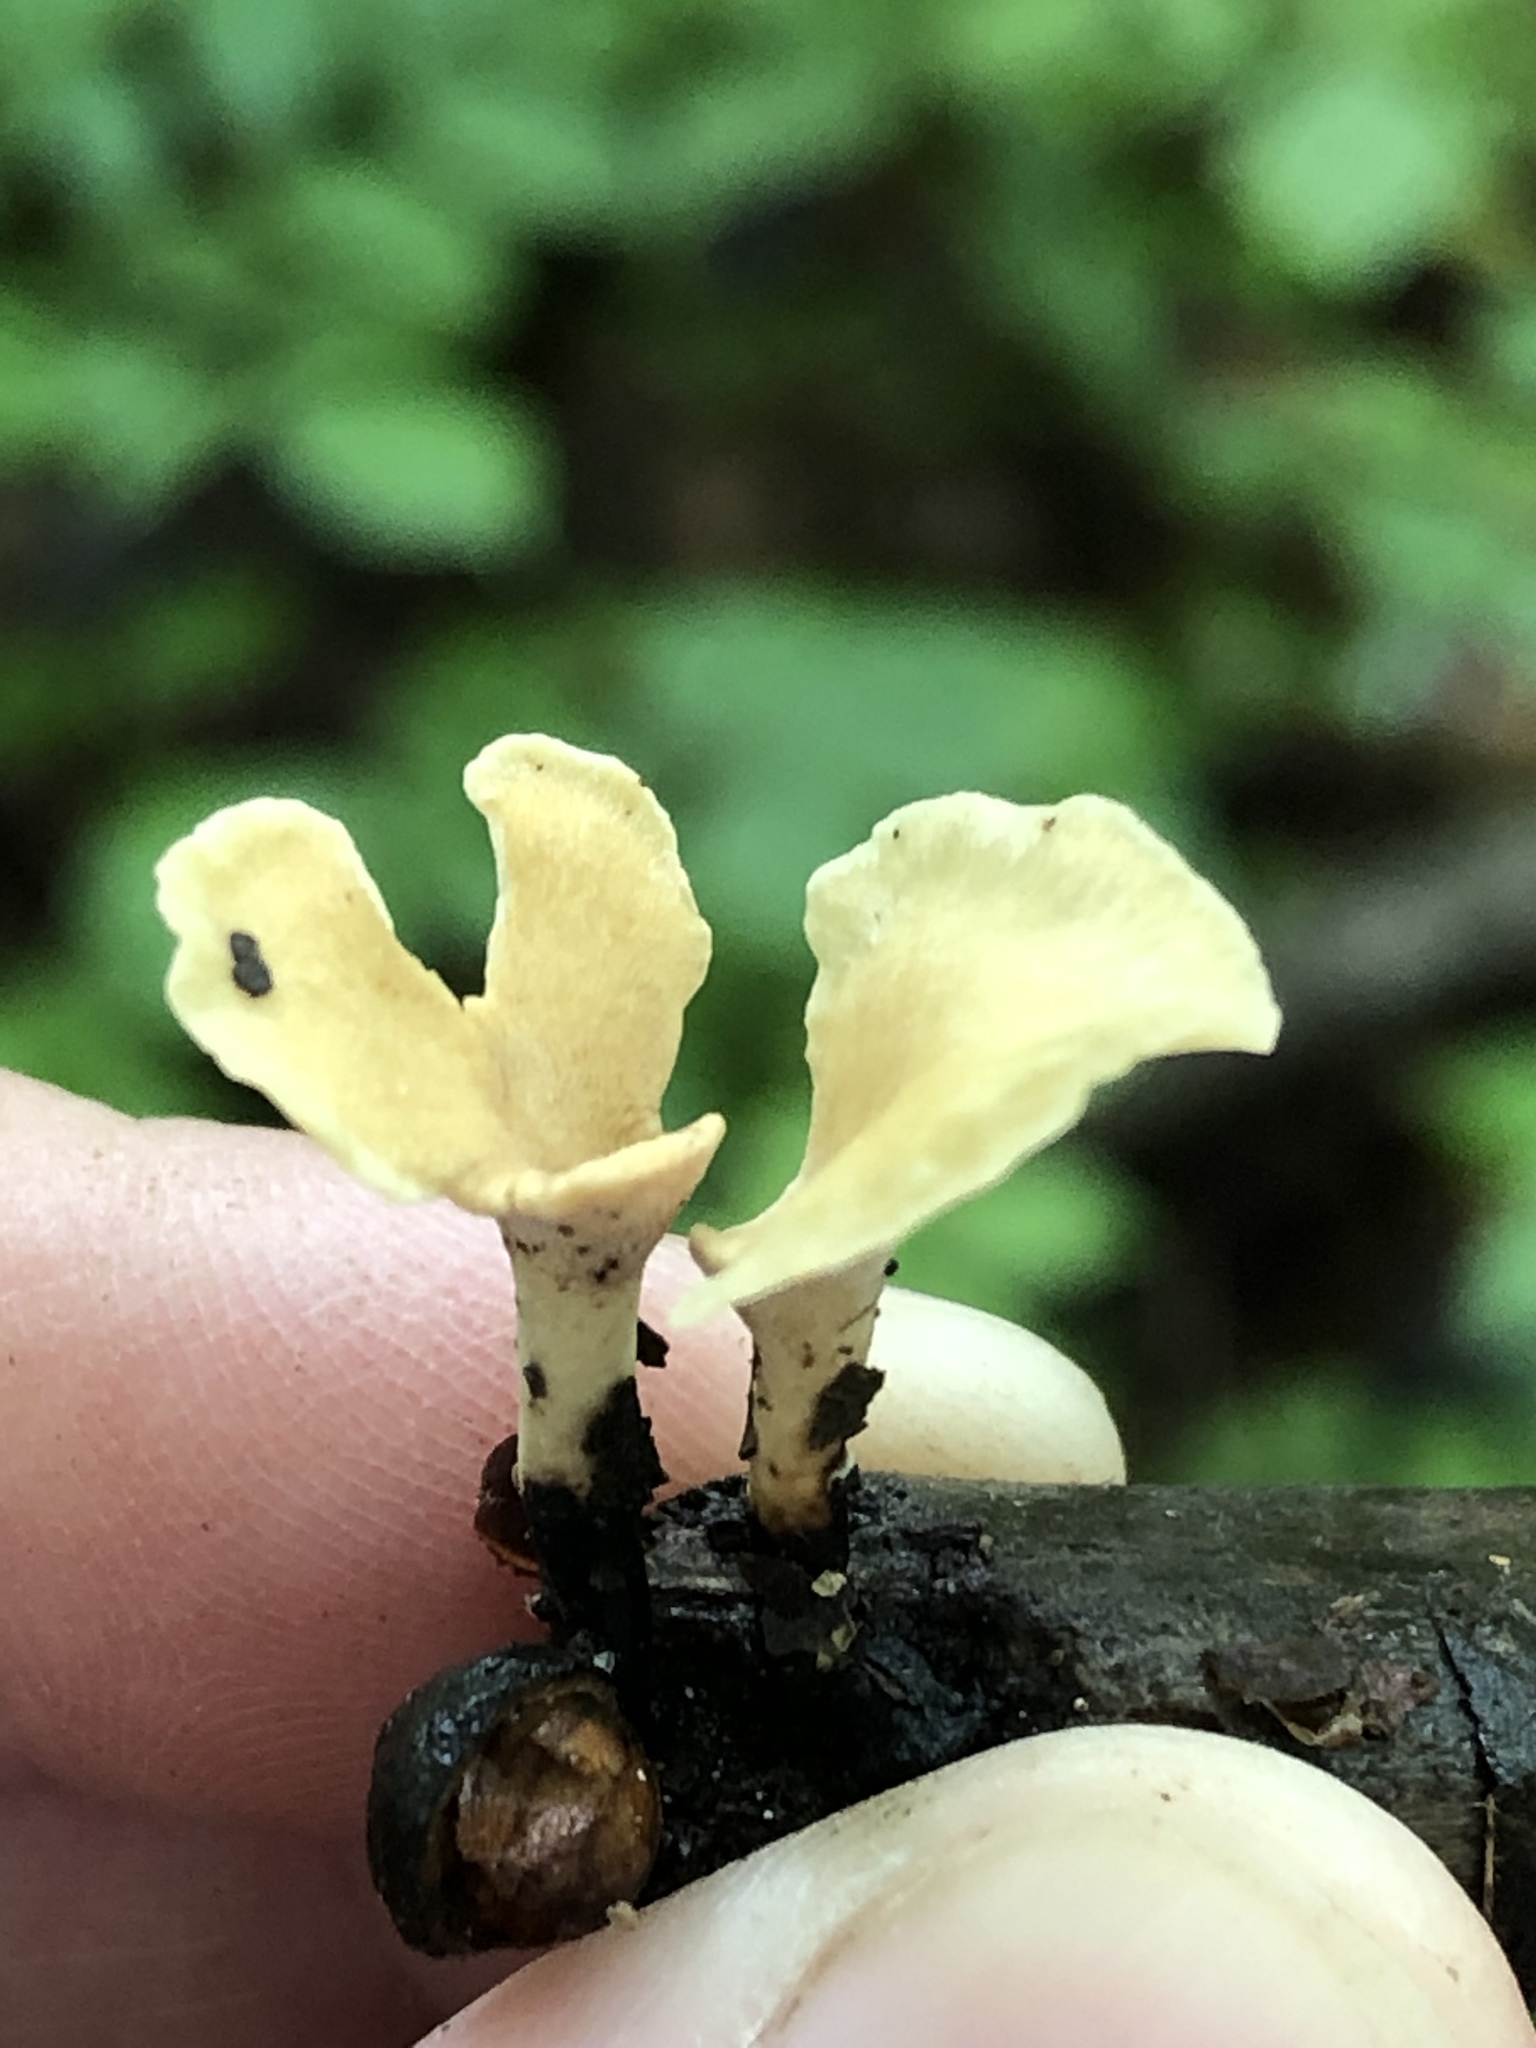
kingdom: Fungi
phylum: Basidiomycota
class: Agaricomycetes
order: Polyporales
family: Steccherinaceae
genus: Loweomyces
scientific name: Loweomyces fractipes
